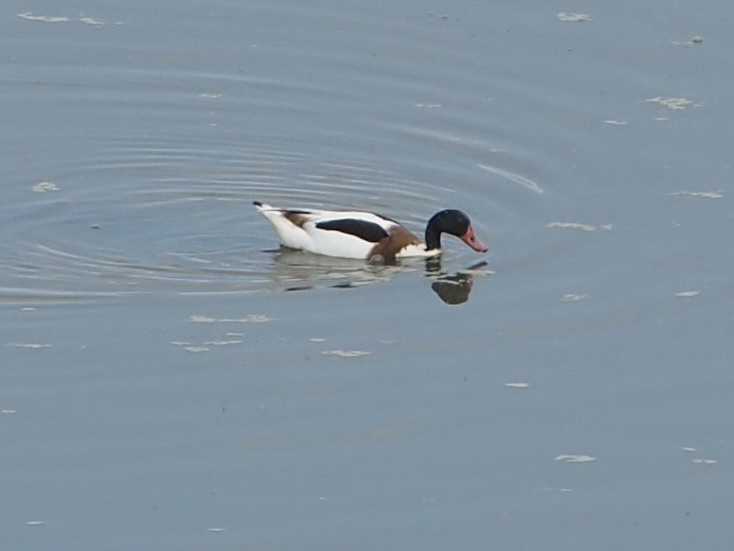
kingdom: Animalia
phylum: Chordata
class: Aves
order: Anseriformes
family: Anatidae
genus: Tadorna
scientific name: Tadorna tadorna
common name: Common shelduck
